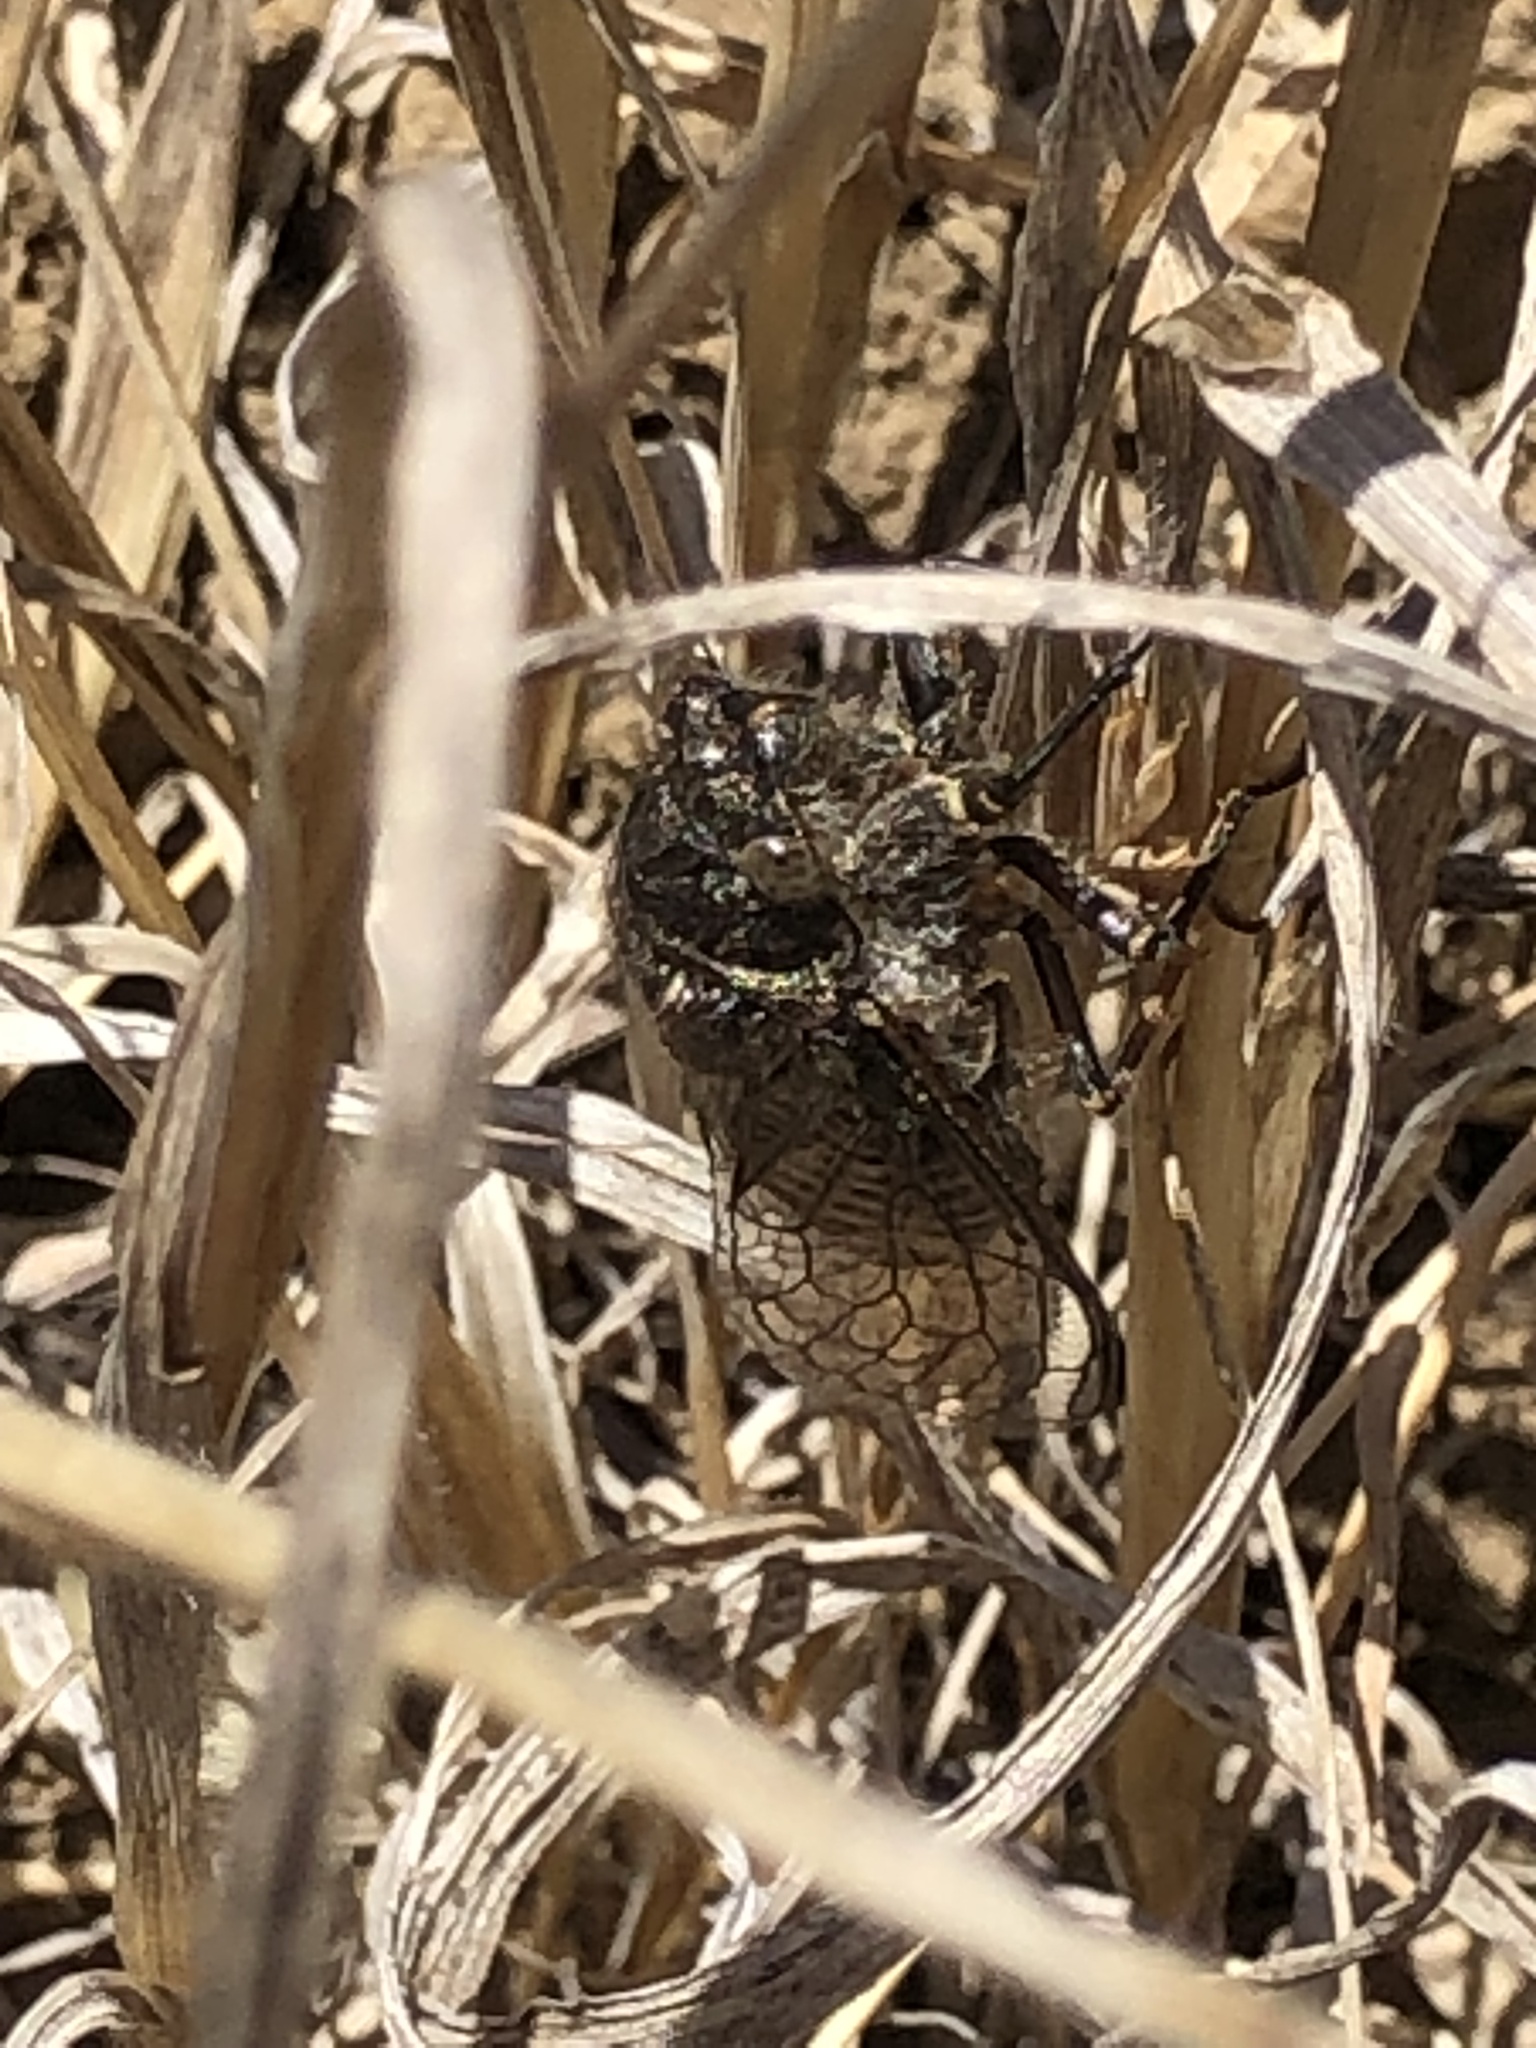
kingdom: Animalia
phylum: Arthropoda
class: Insecta
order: Hemiptera
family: Cicadidae
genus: Tibicinoides
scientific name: Tibicinoides
